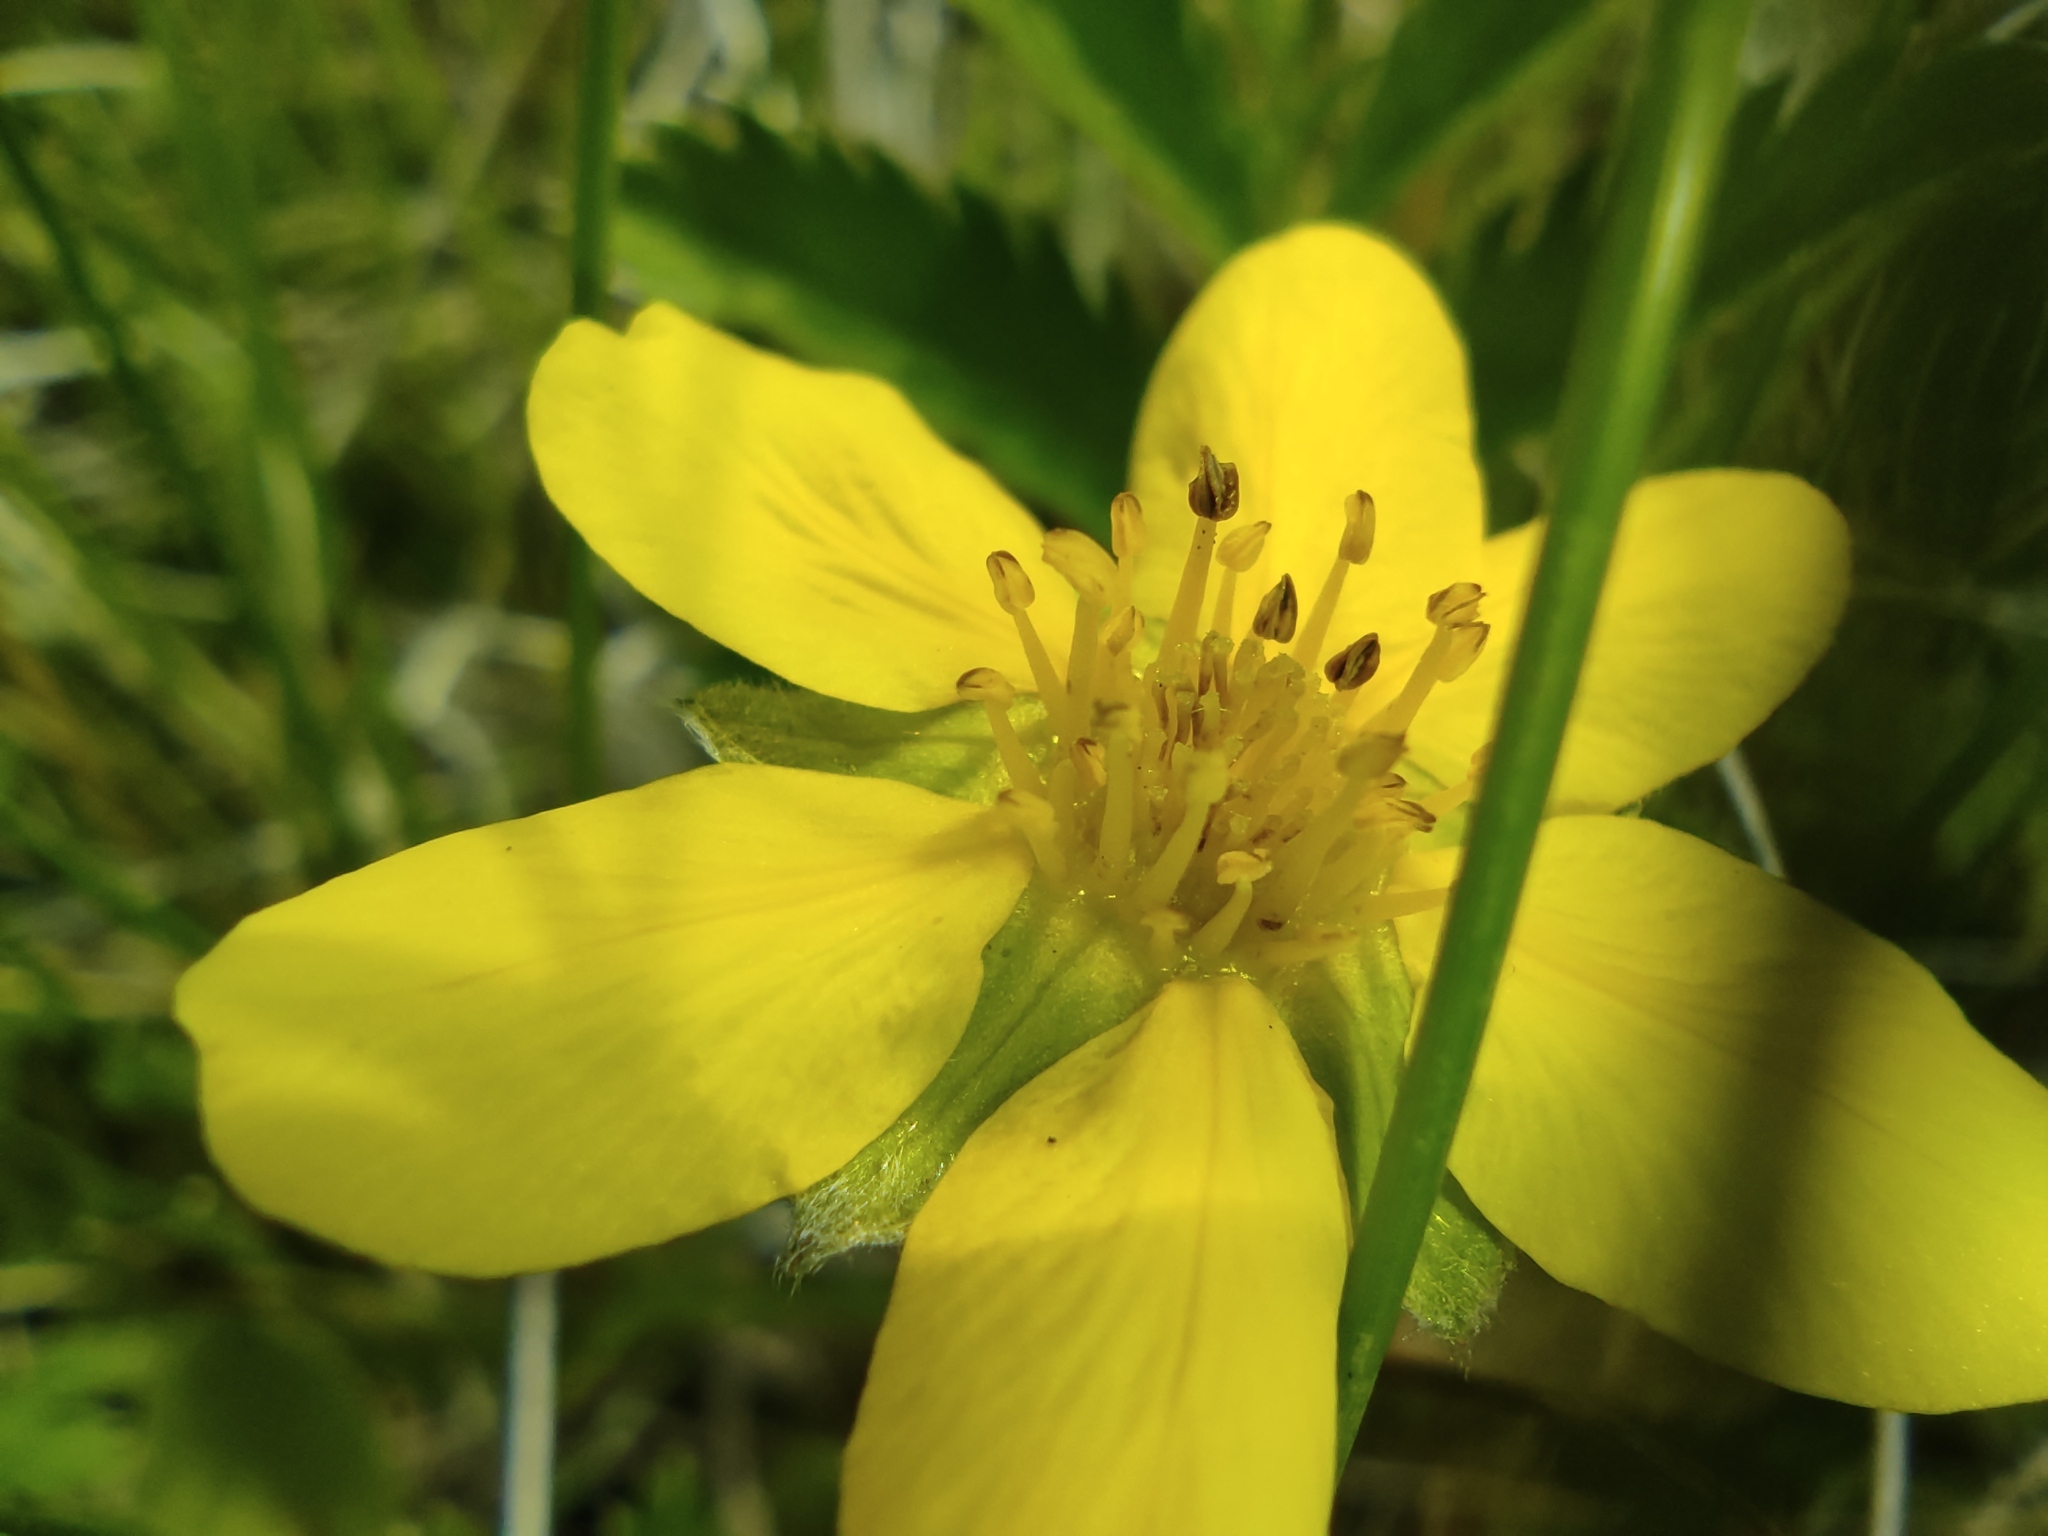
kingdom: Plantae
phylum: Tracheophyta
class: Magnoliopsida
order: Rosales
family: Rosaceae
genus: Argentina
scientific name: Argentina anserina
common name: Common silverweed
